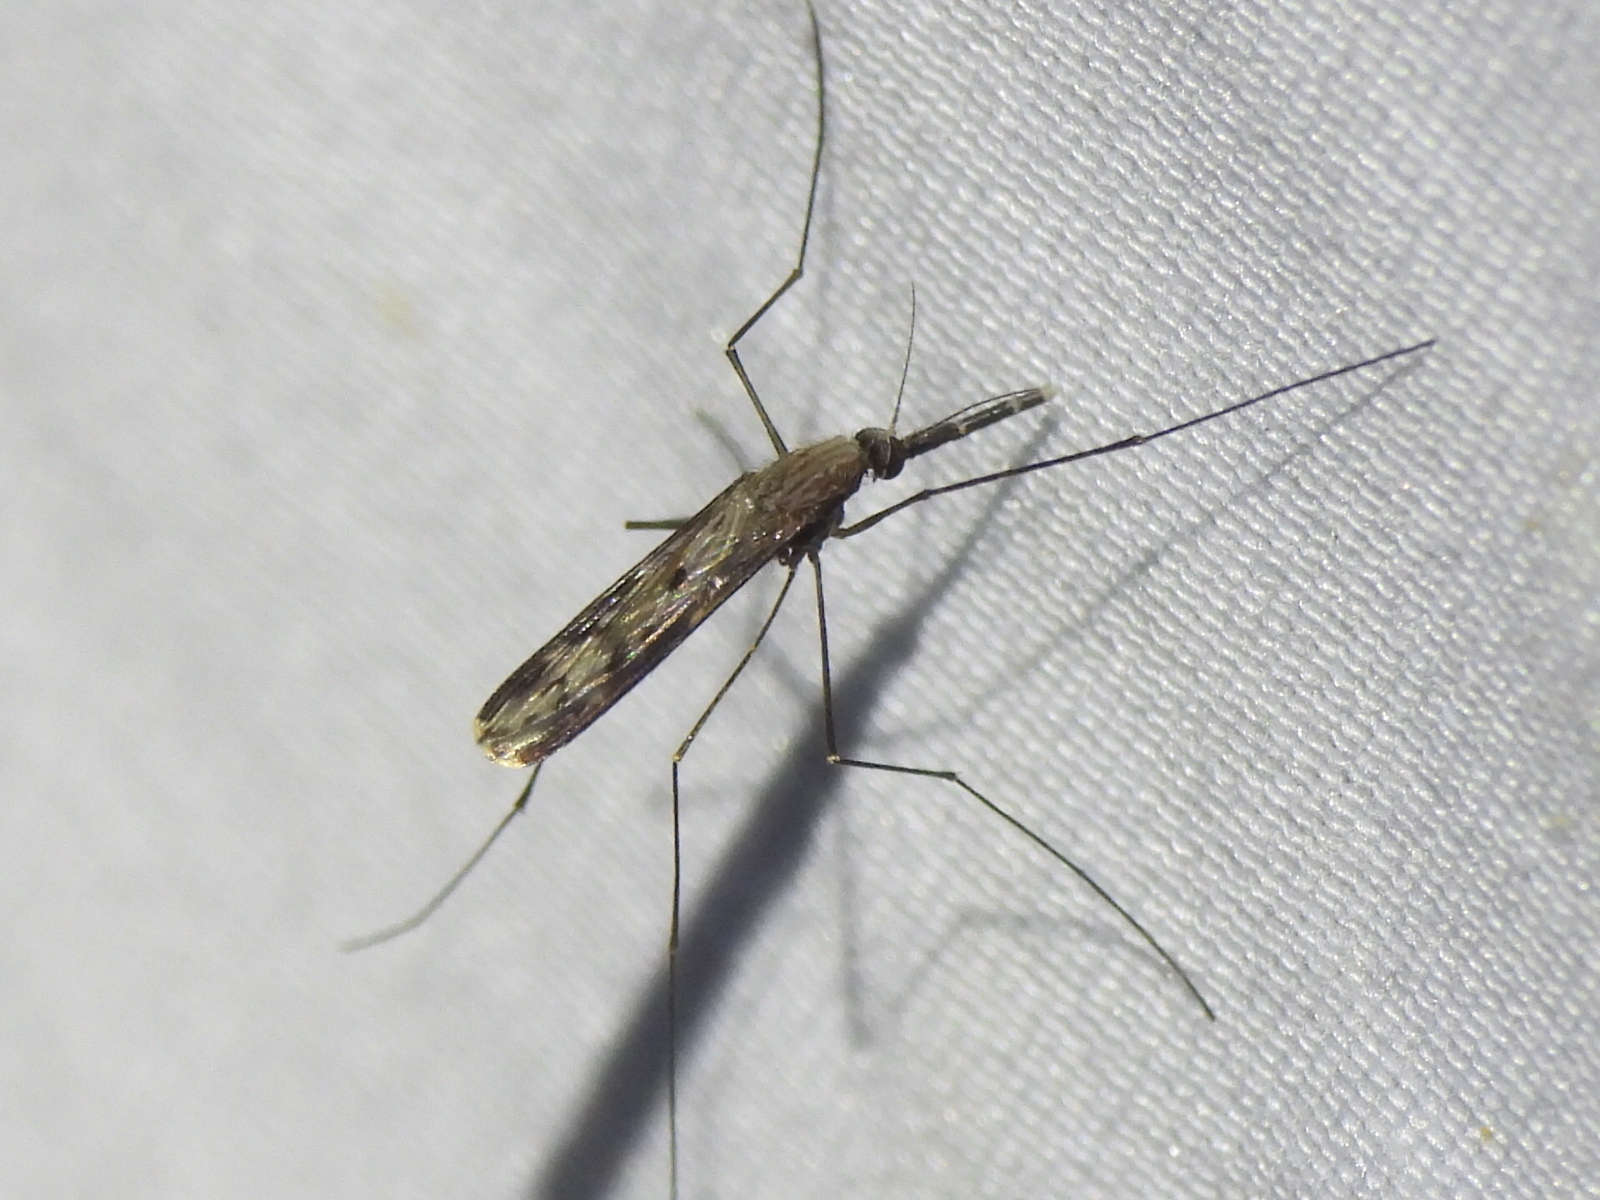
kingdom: Animalia
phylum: Arthropoda
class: Insecta
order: Diptera
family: Culicidae
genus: Anopheles
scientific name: Anopheles
